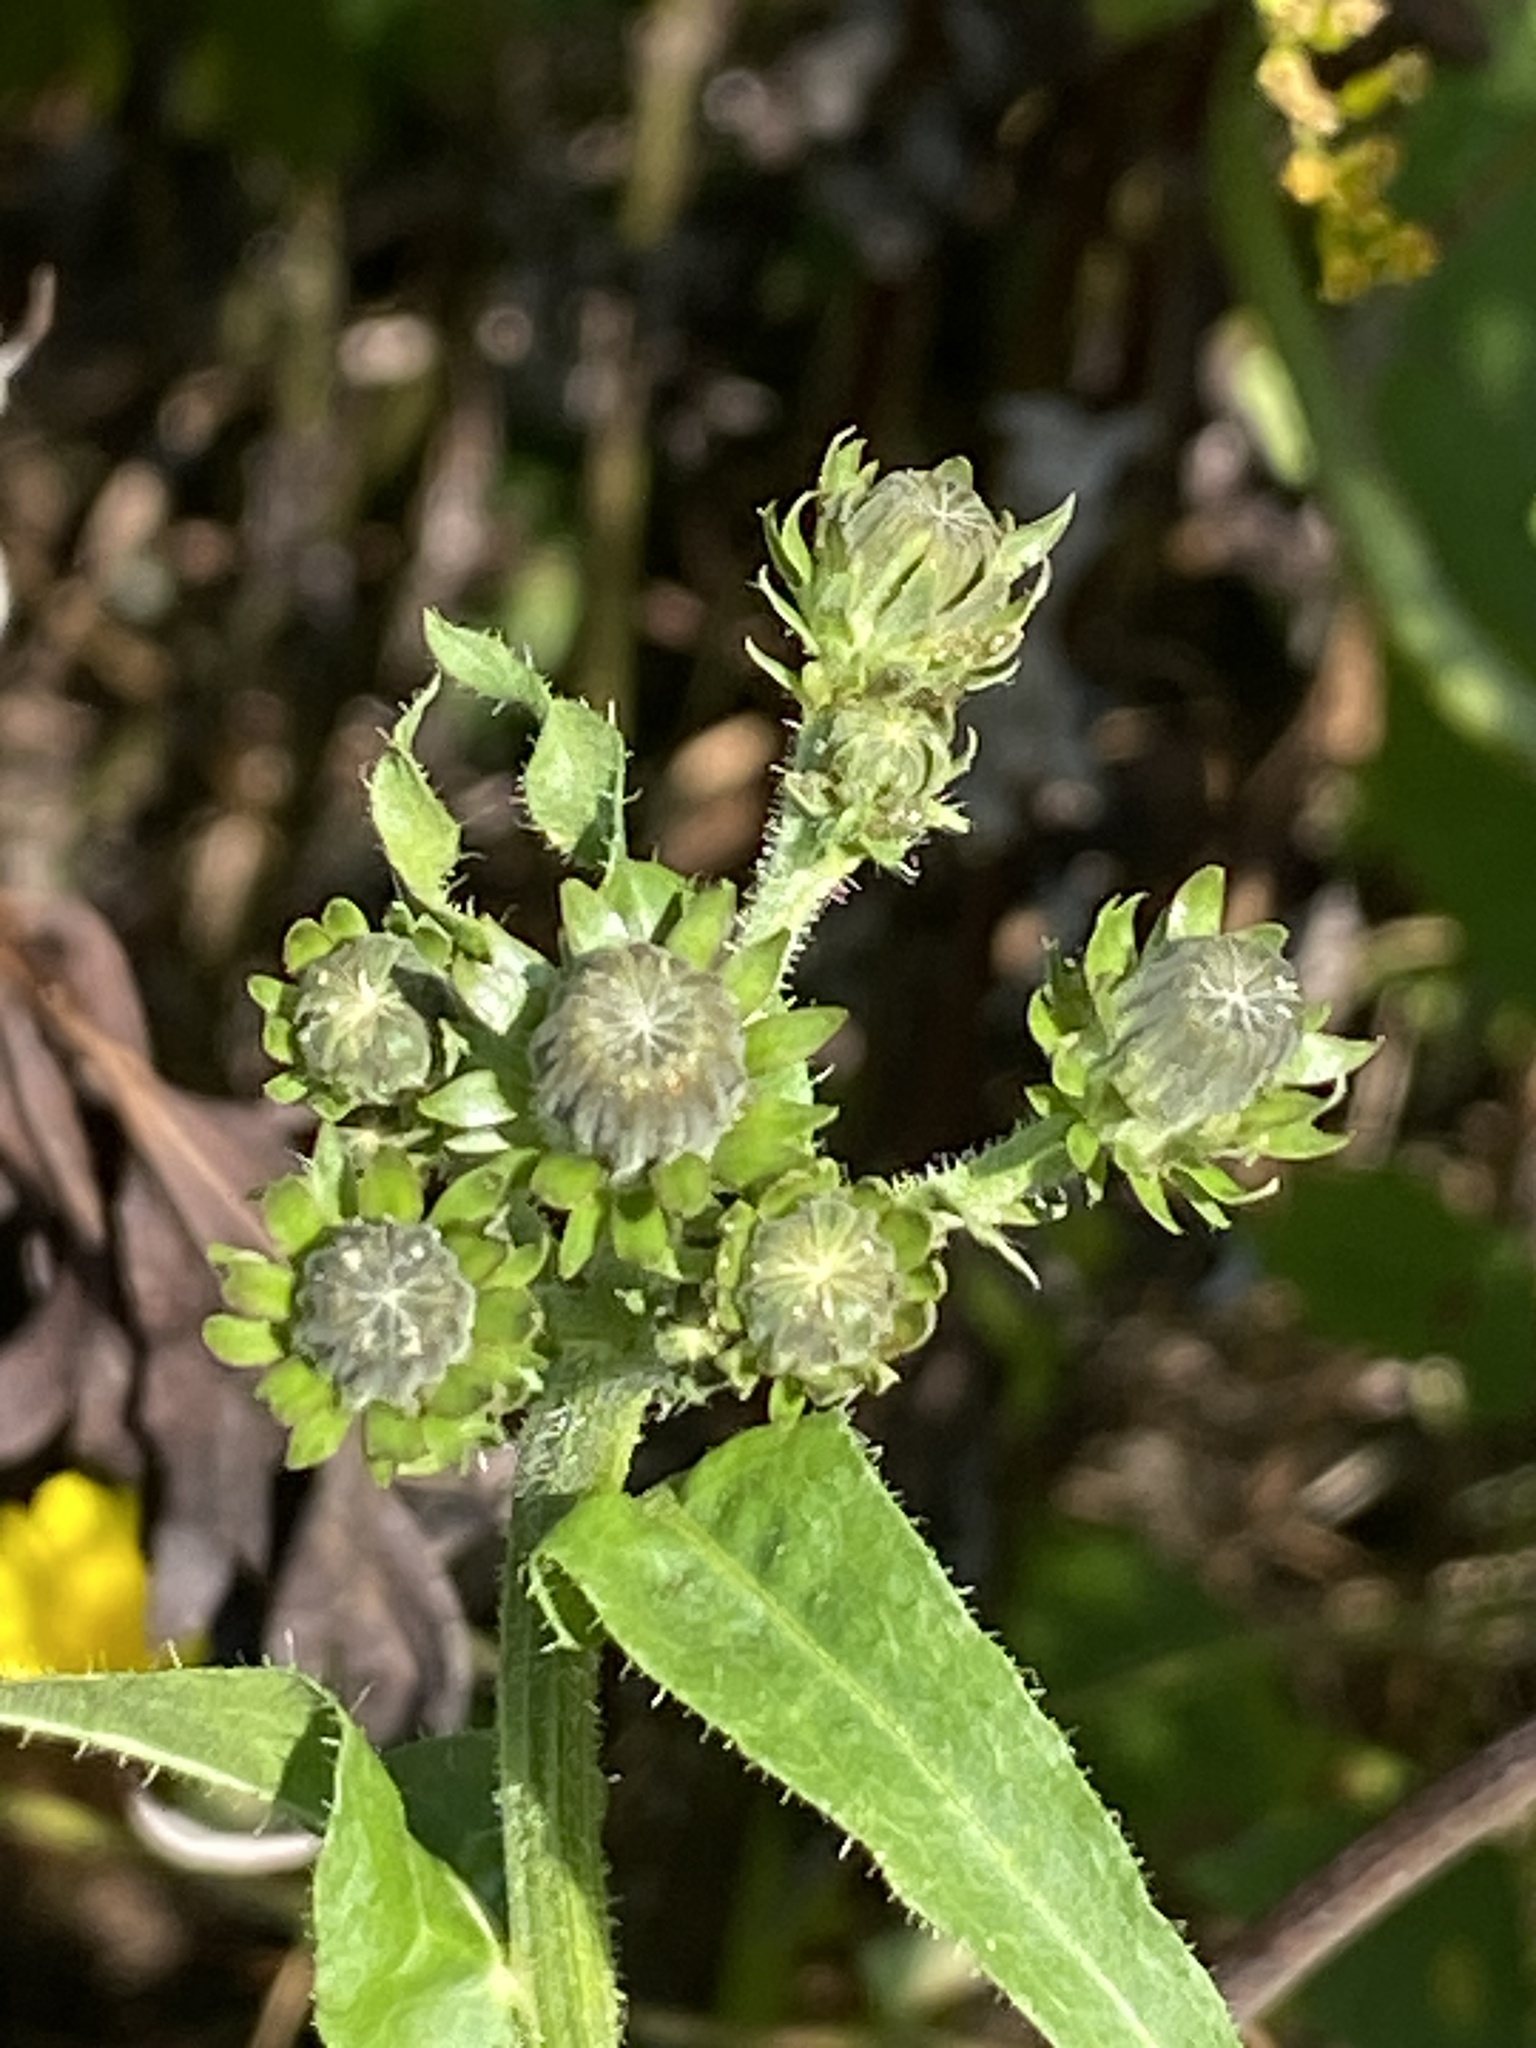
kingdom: Plantae
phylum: Tracheophyta
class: Magnoliopsida
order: Asterales
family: Asteraceae
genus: Picris
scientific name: Picris hieracioides
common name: Hawkweed oxtongue
